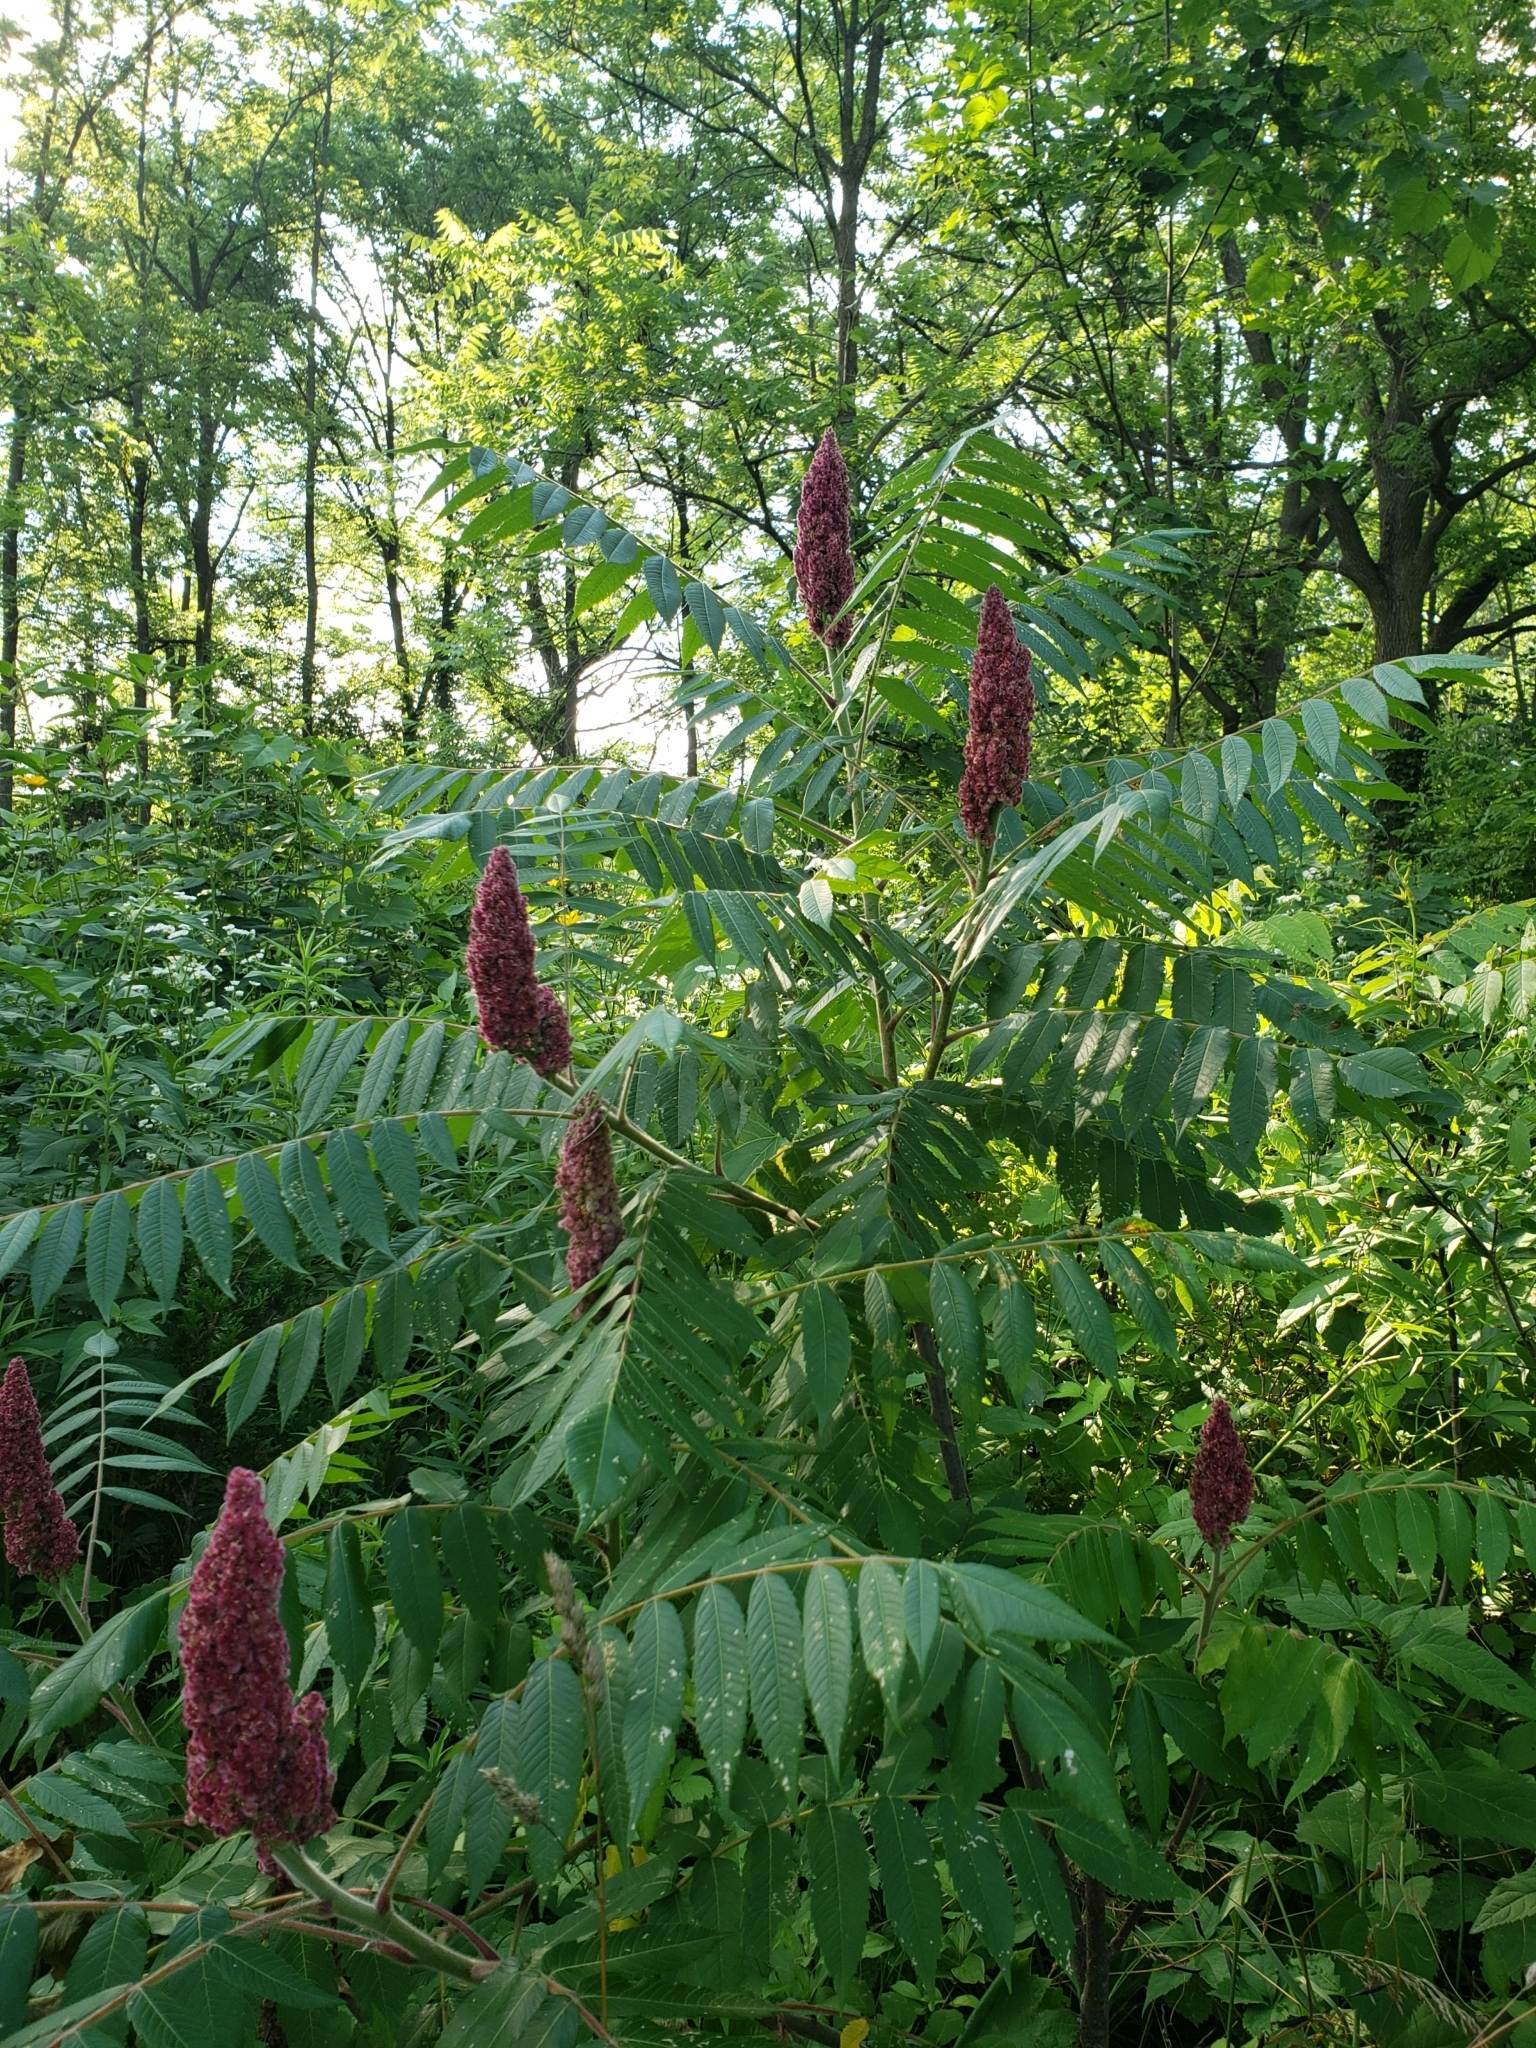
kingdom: Plantae
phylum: Tracheophyta
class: Magnoliopsida
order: Sapindales
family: Anacardiaceae
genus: Rhus
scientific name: Rhus typhina
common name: Staghorn sumac
